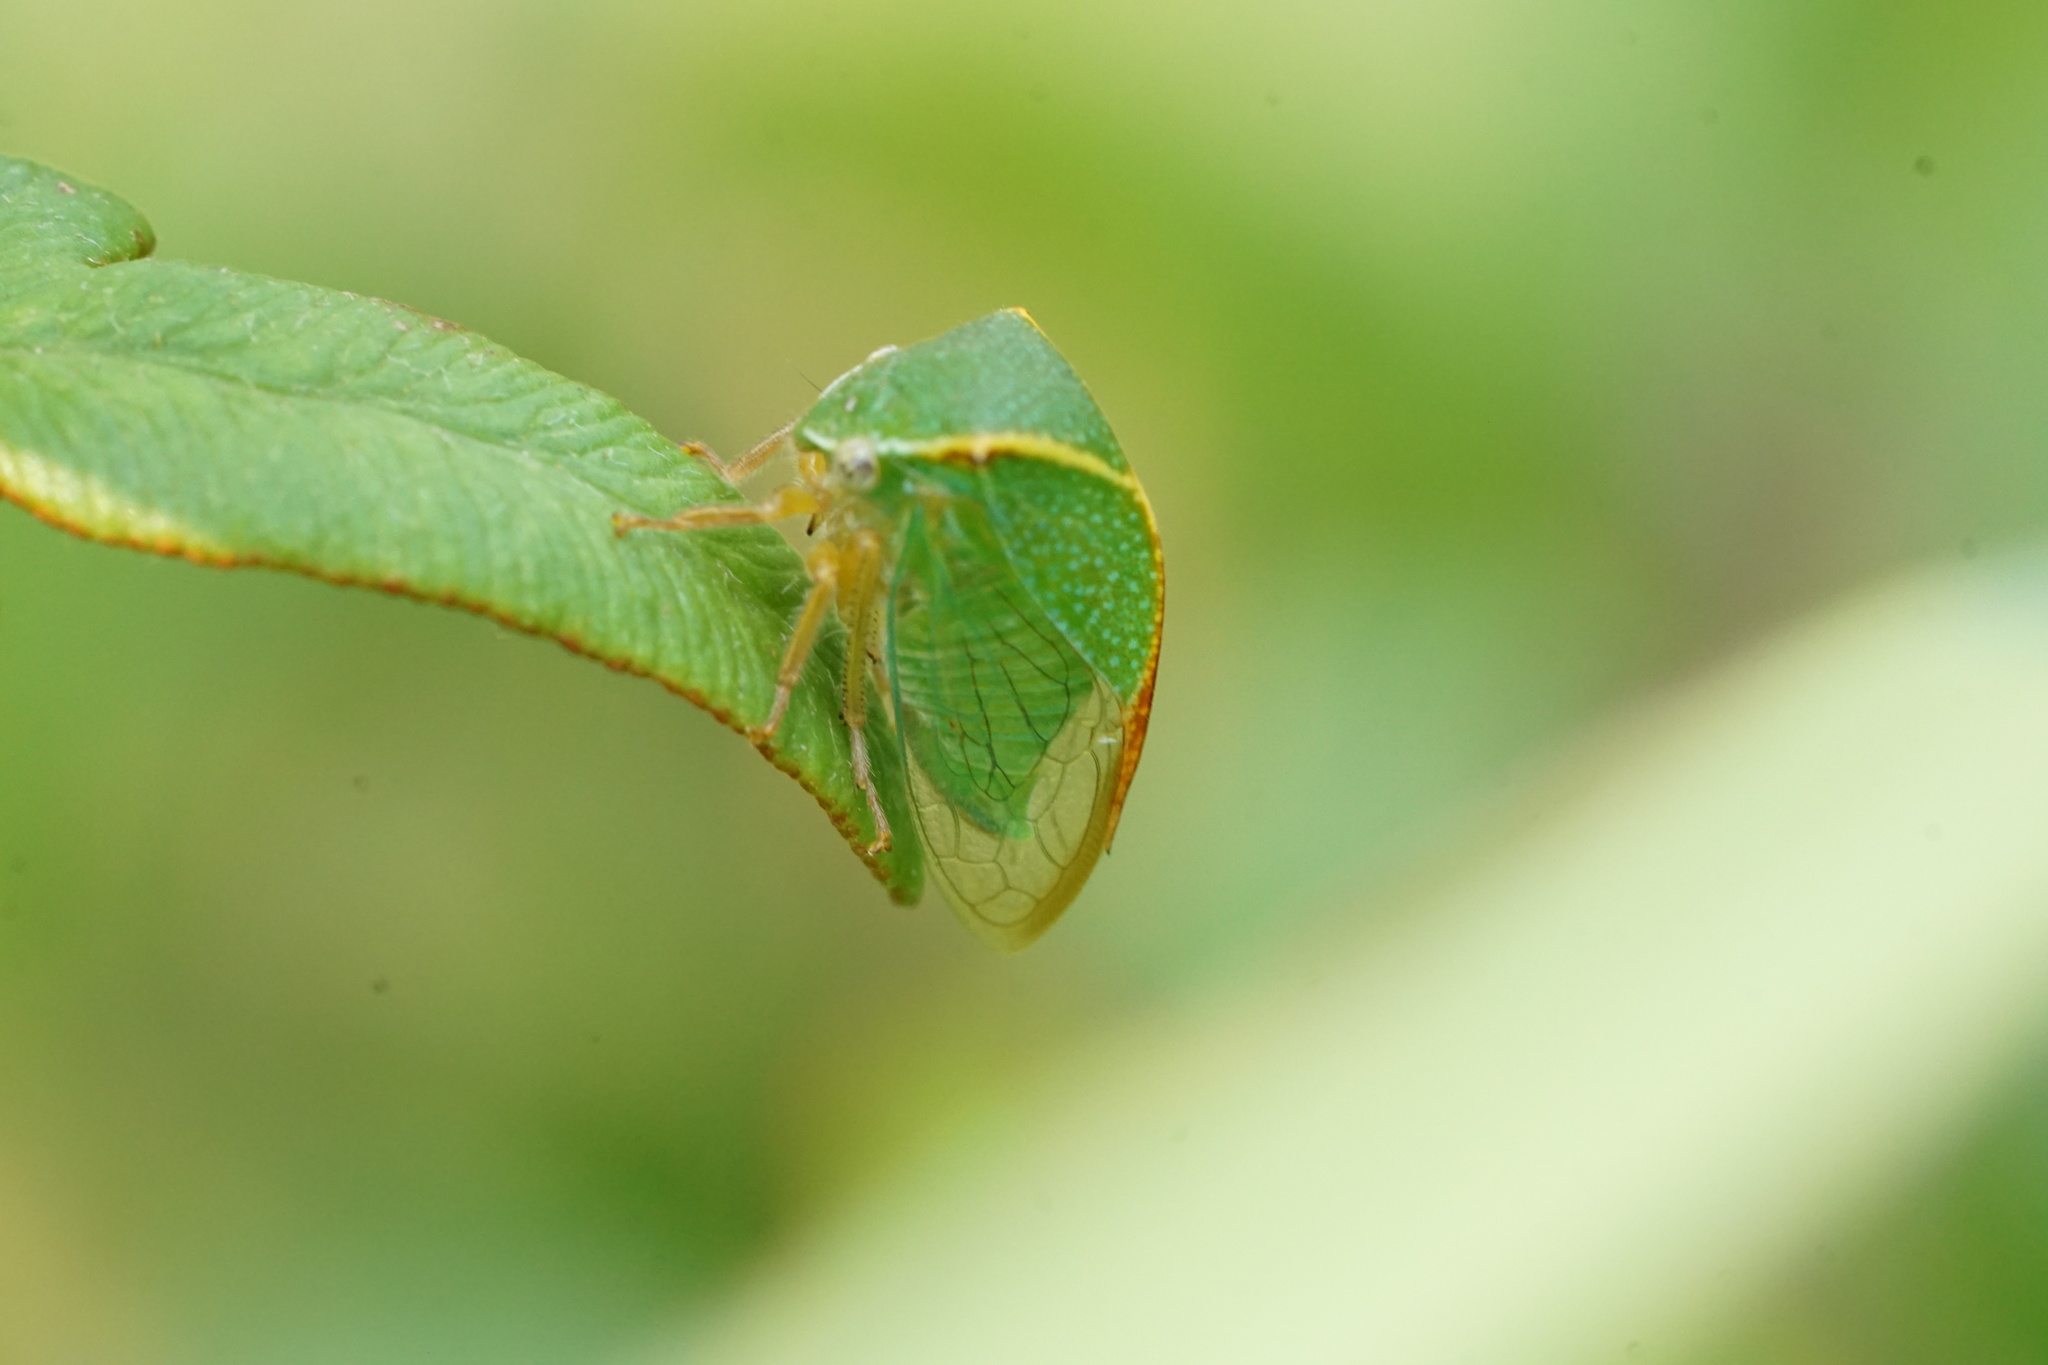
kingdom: Animalia
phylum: Arthropoda
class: Insecta
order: Hemiptera
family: Membracidae
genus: Stictocephala
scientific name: Stictocephala brevicornis
